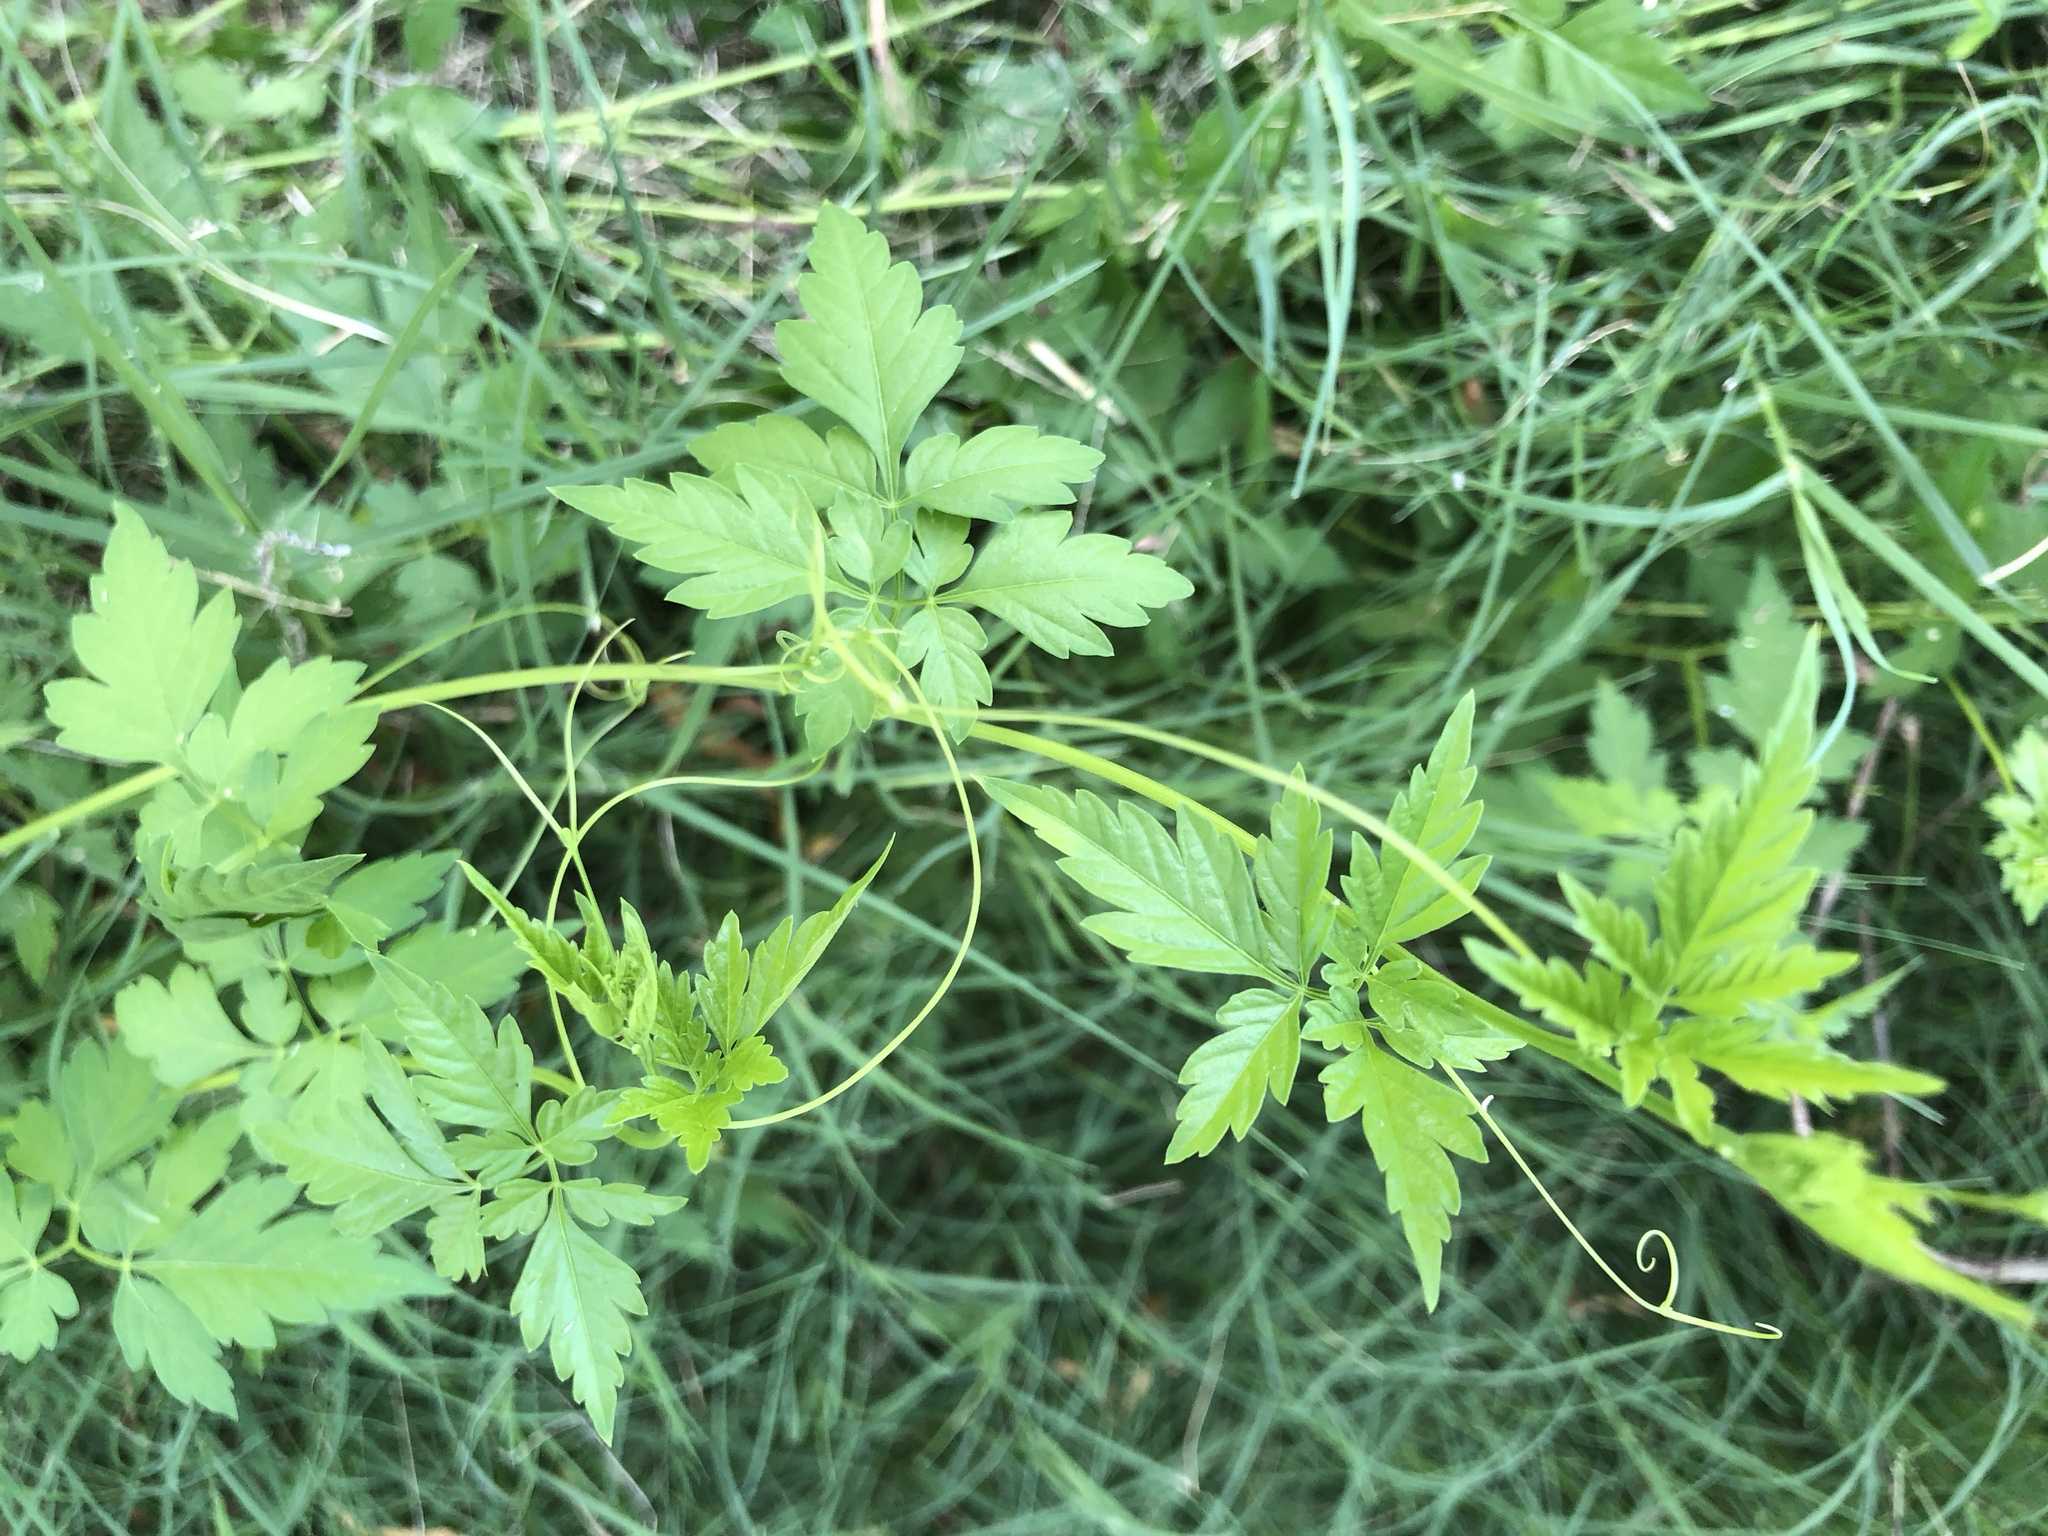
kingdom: Plantae
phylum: Tracheophyta
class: Magnoliopsida
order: Sapindales
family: Sapindaceae
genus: Cardiospermum
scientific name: Cardiospermum halicacabum
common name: Balloon vine
